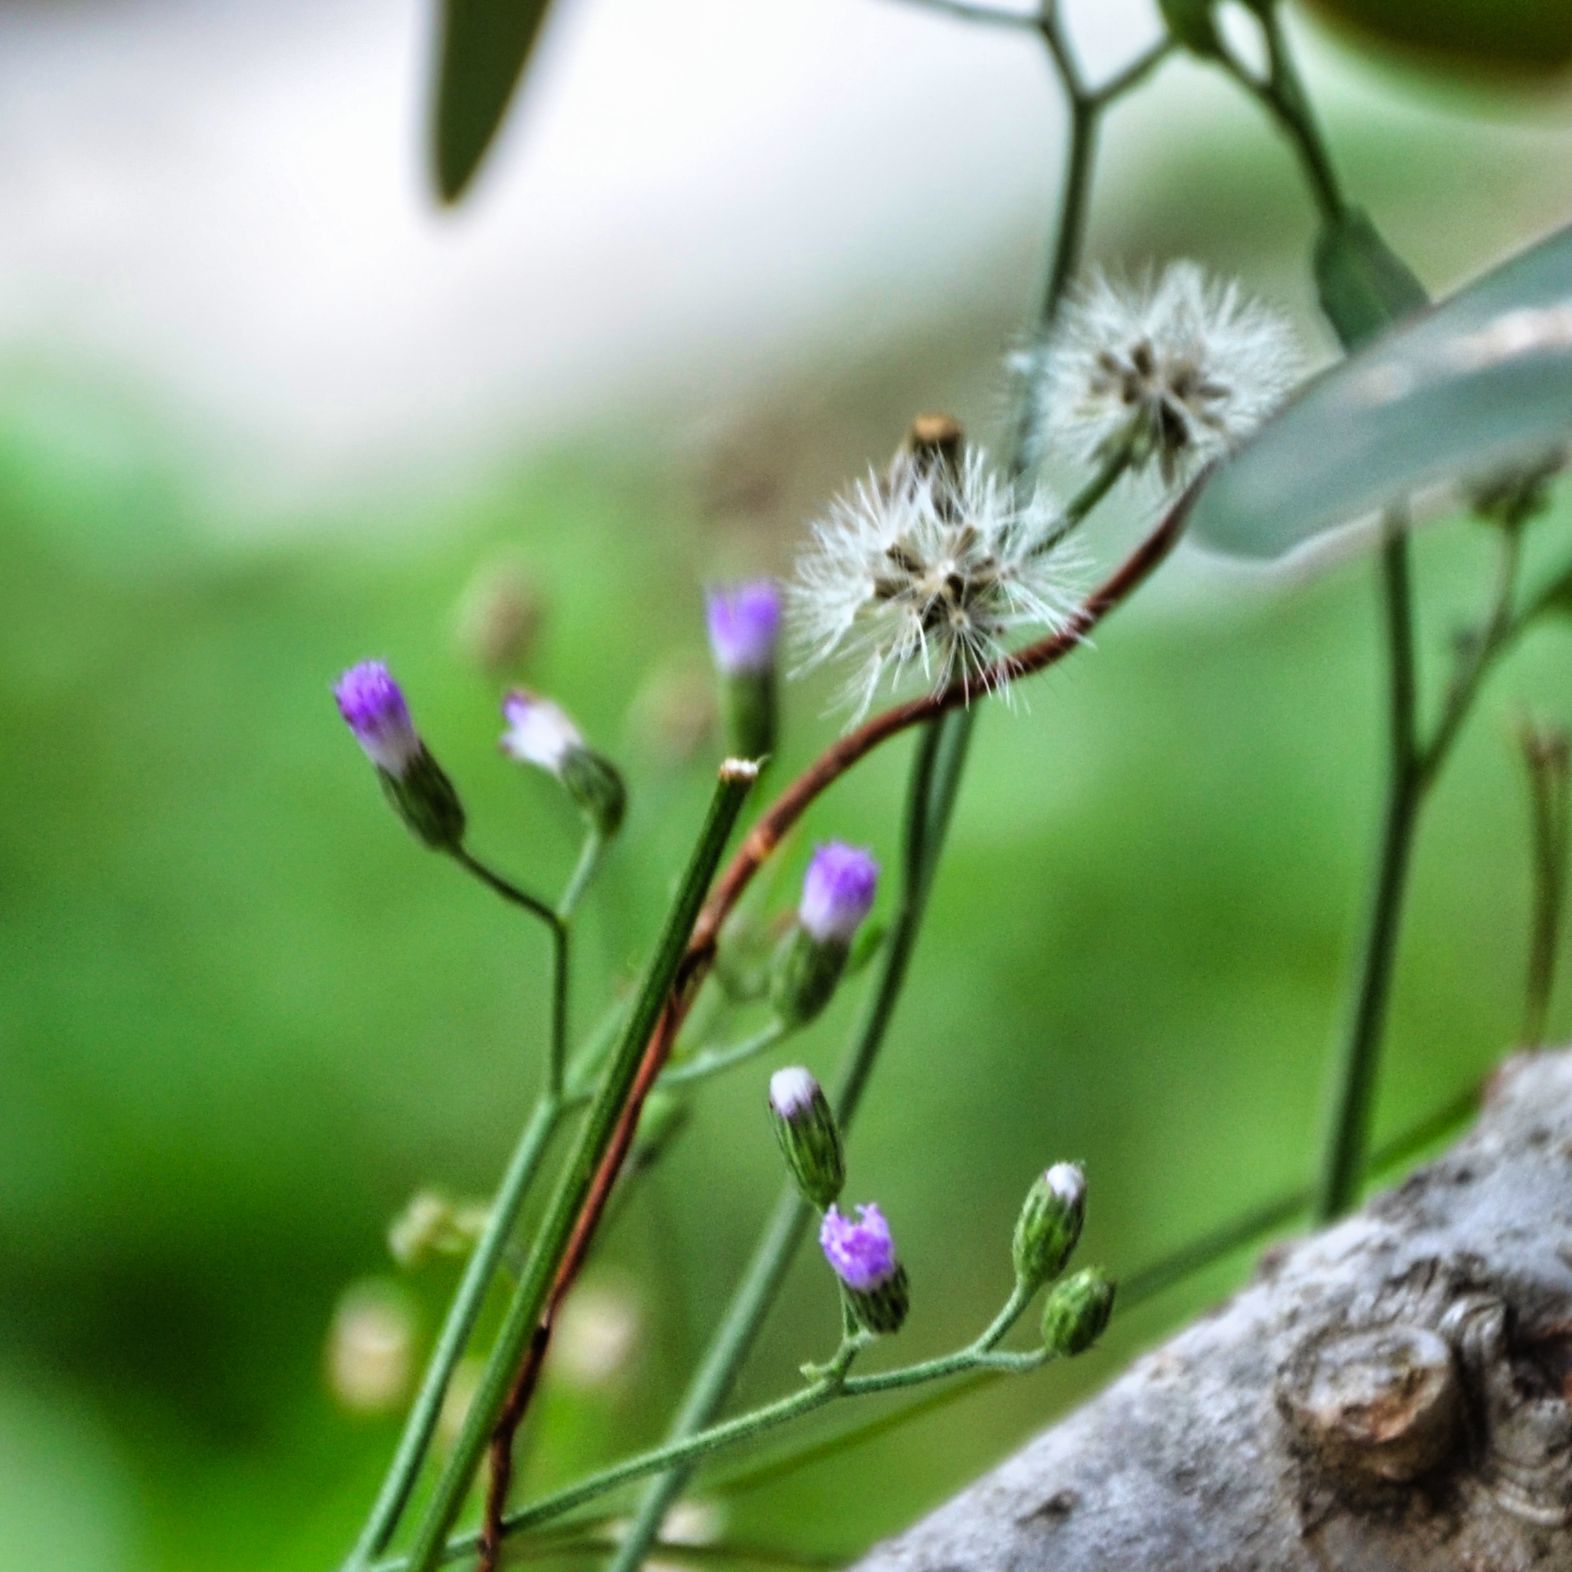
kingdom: Plantae
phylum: Tracheophyta
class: Magnoliopsida
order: Asterales
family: Asteraceae
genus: Cyanthillium
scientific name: Cyanthillium cinereum
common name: Little ironweed
